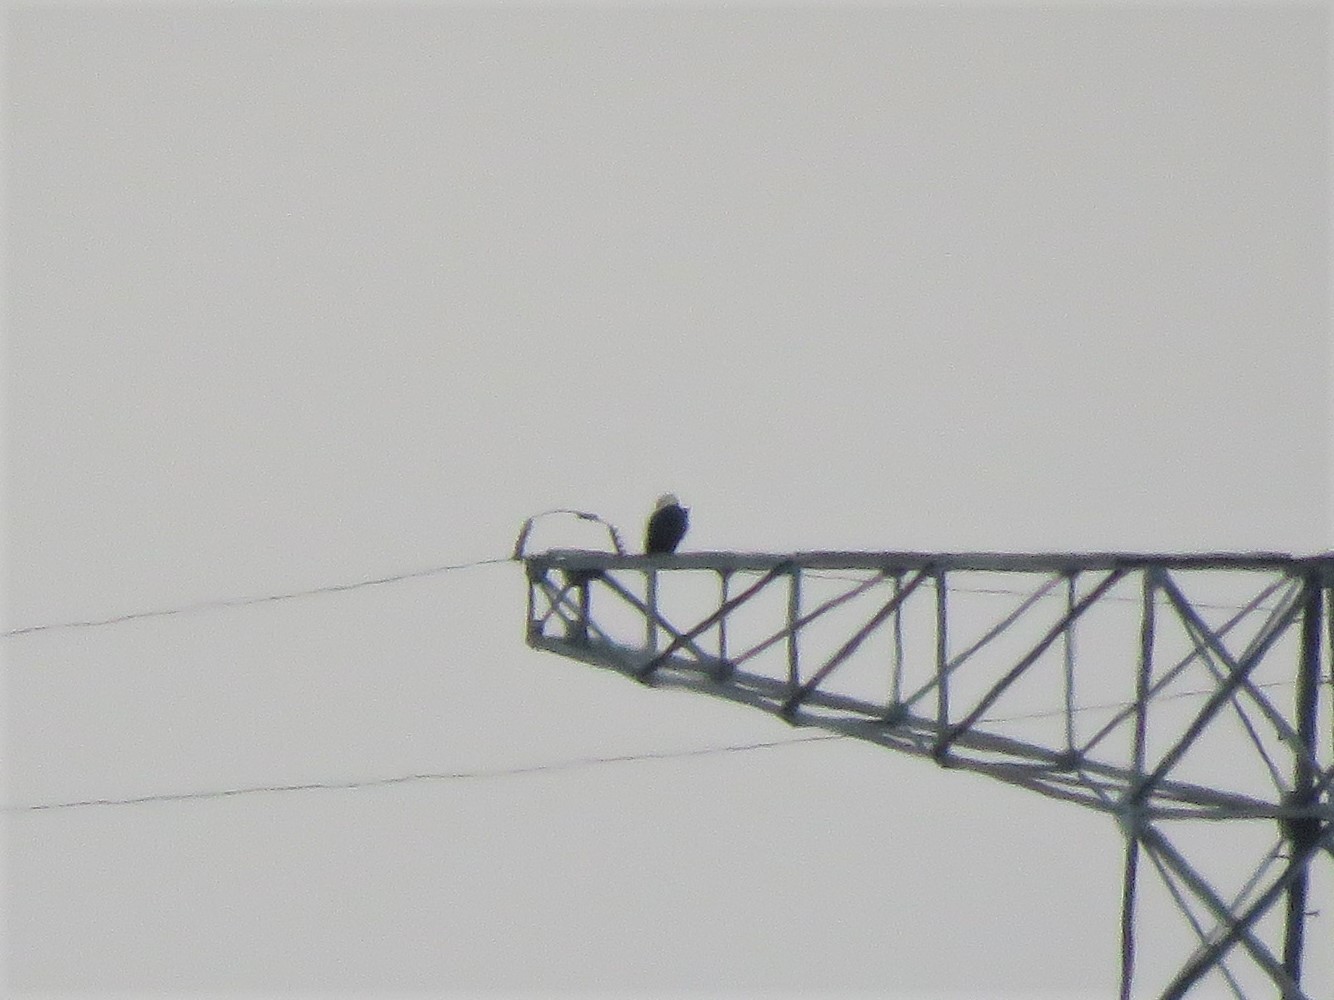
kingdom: Animalia
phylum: Chordata
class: Aves
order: Accipitriformes
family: Accipitridae
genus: Haliaeetus
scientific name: Haliaeetus leucocephalus
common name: Bald eagle
